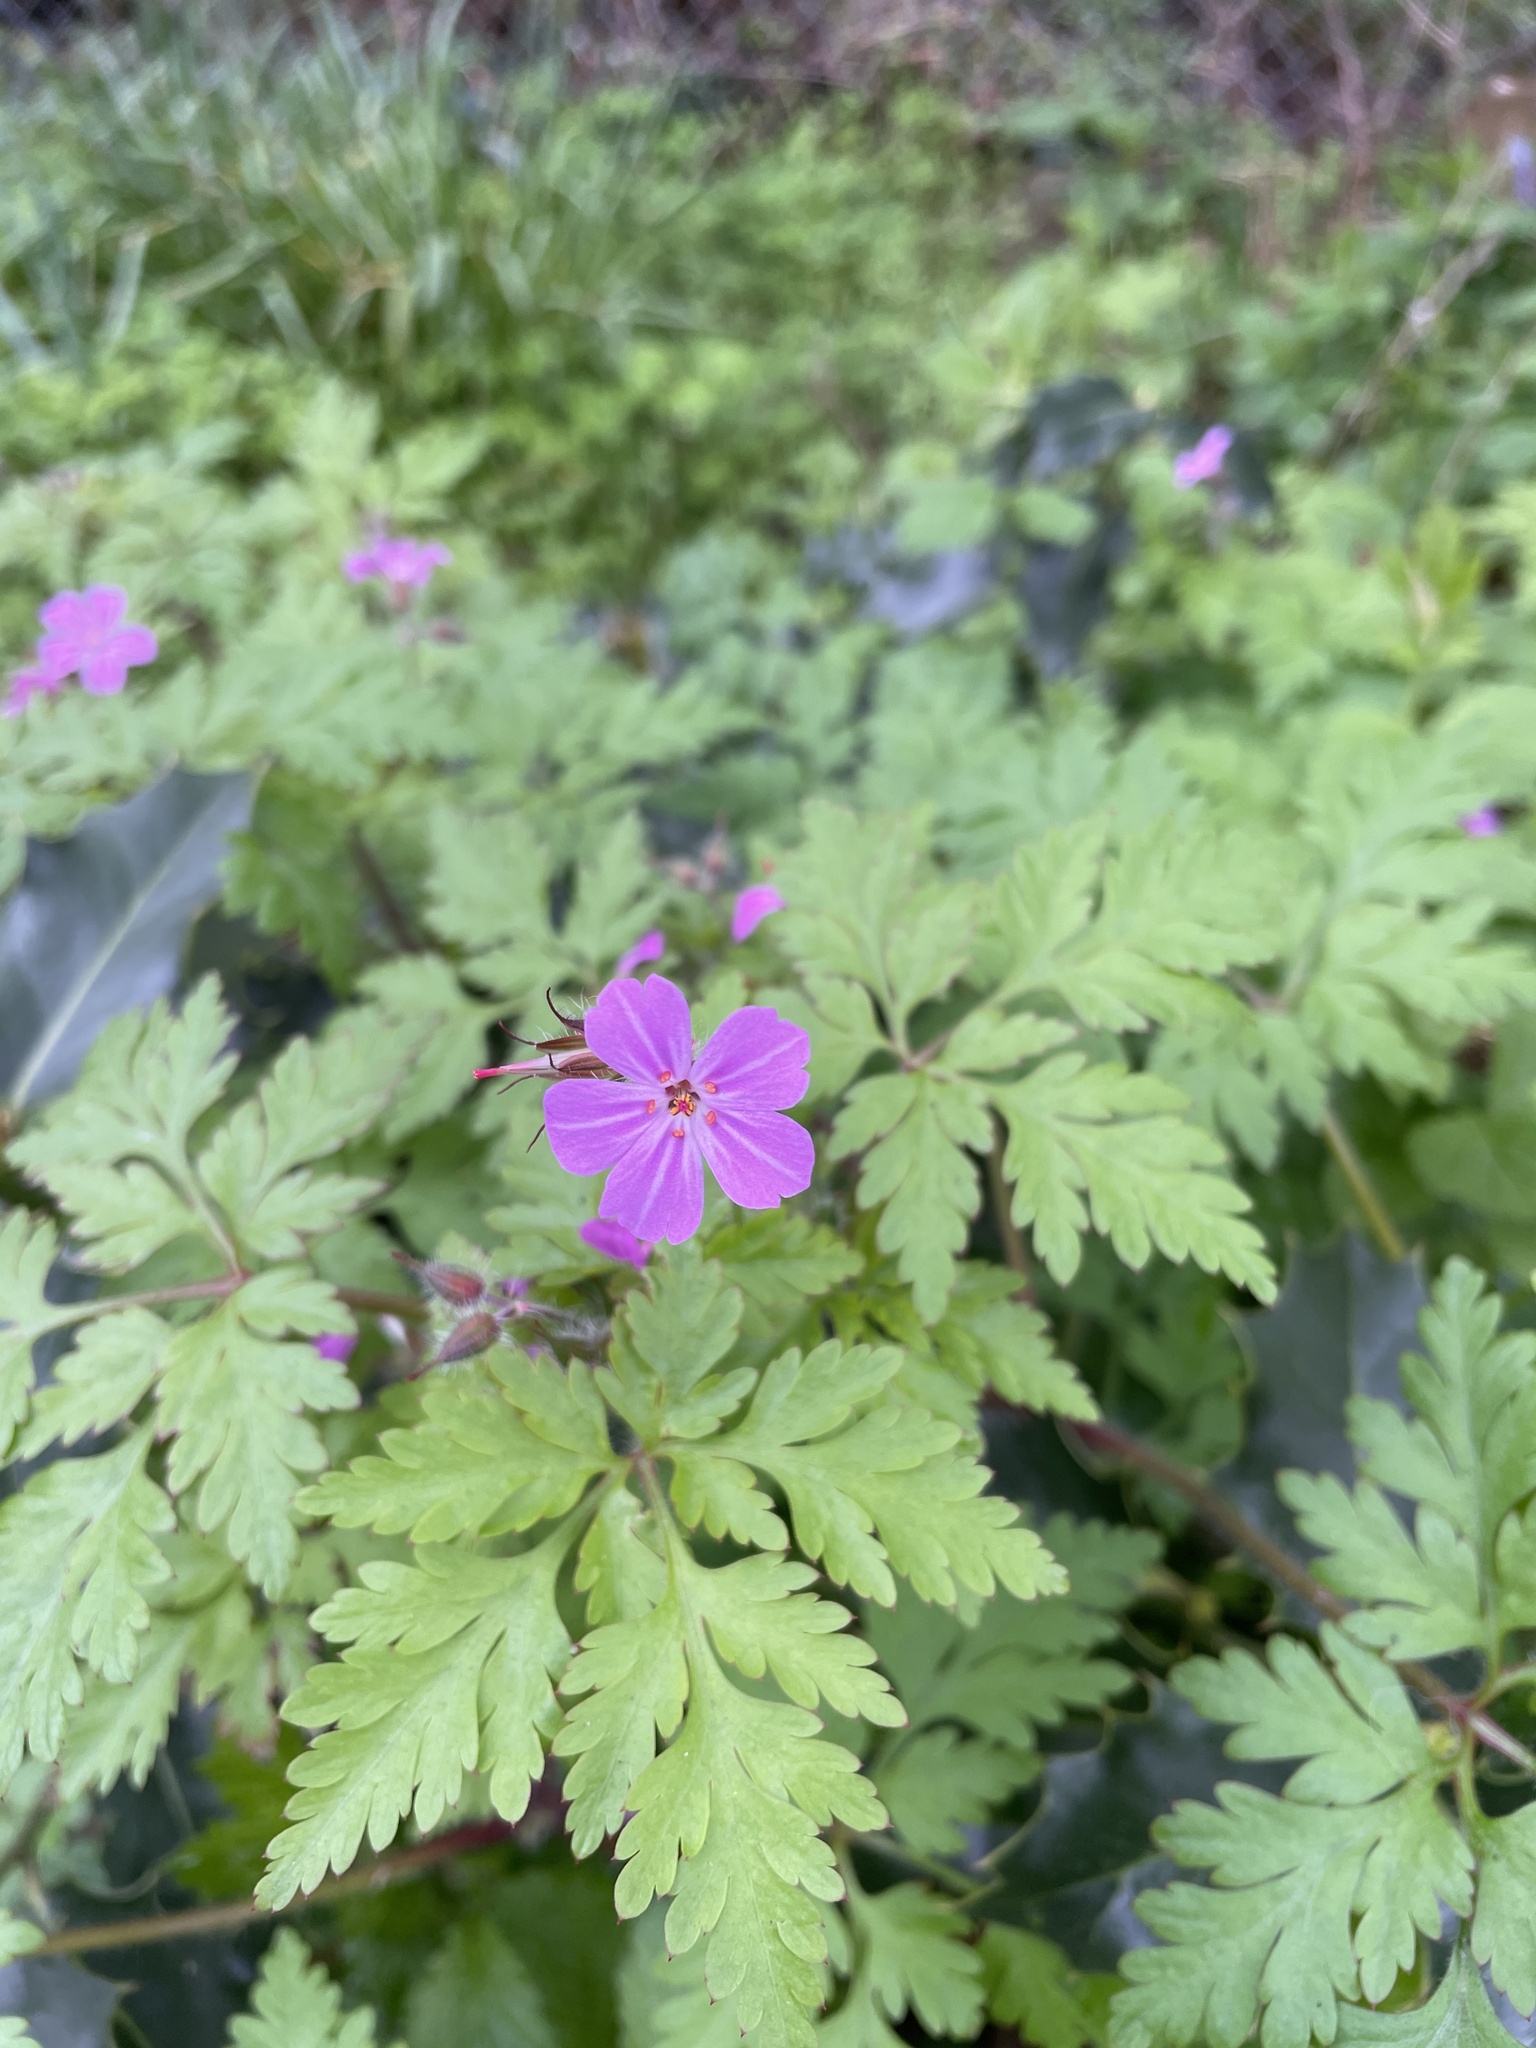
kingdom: Plantae
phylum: Tracheophyta
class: Magnoliopsida
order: Geraniales
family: Geraniaceae
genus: Geranium
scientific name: Geranium robertianum
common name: Herb-robert
